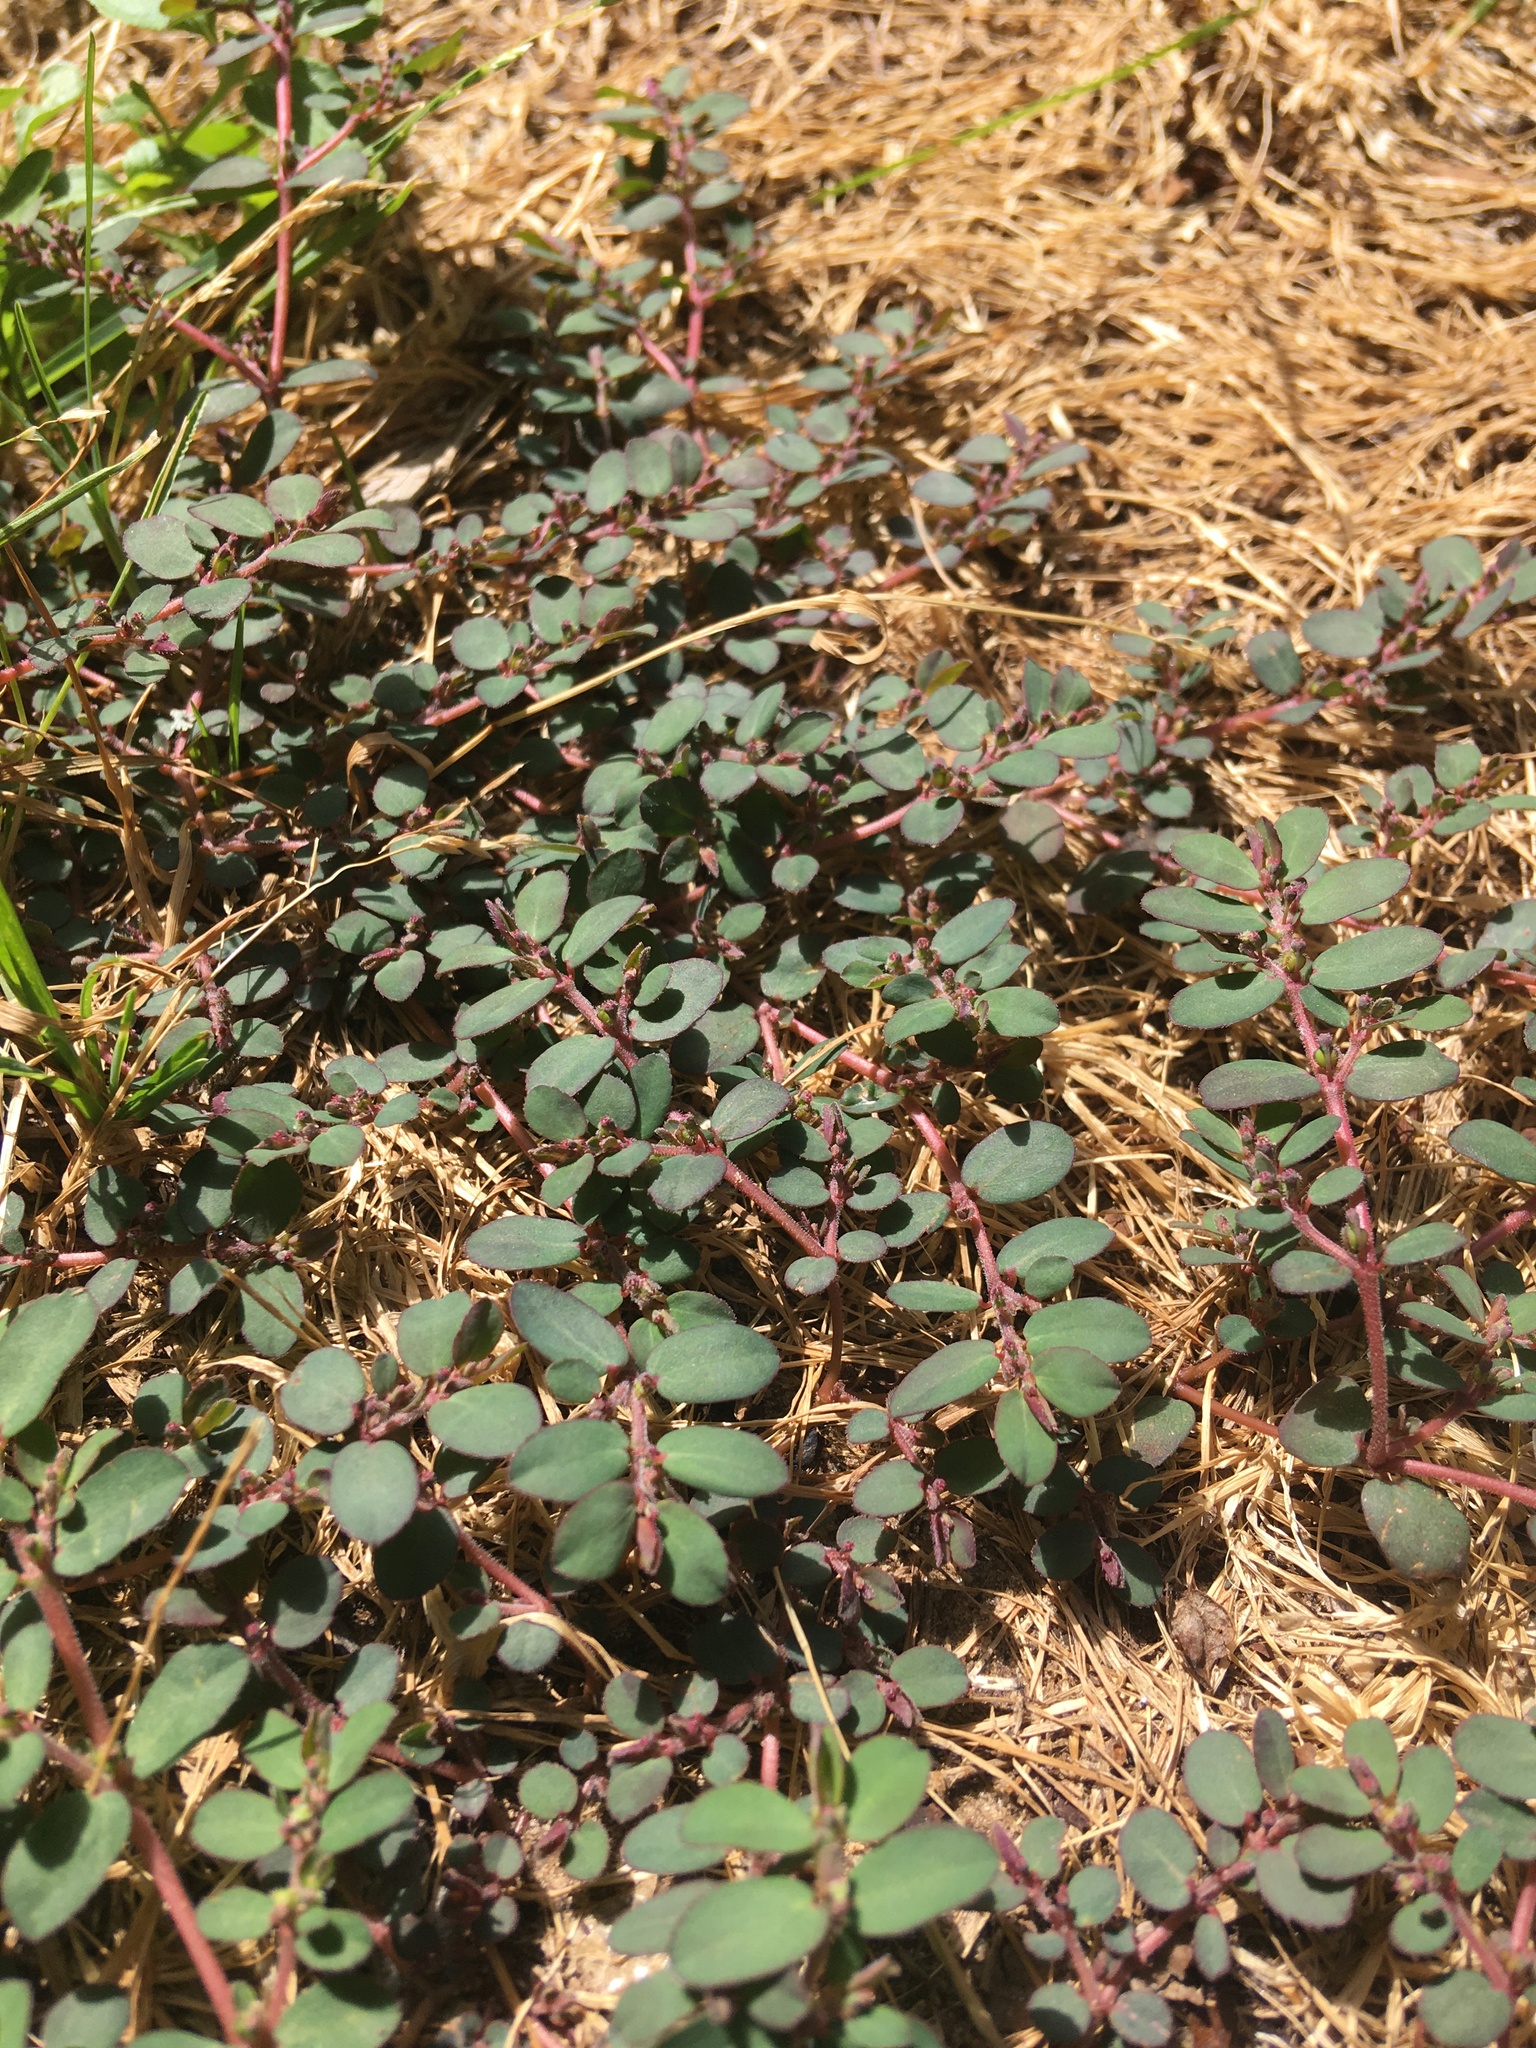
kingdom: Plantae
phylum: Tracheophyta
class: Magnoliopsida
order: Malpighiales
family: Euphorbiaceae
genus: Euphorbia
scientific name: Euphorbia prostrata
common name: Prostrate sandmat
